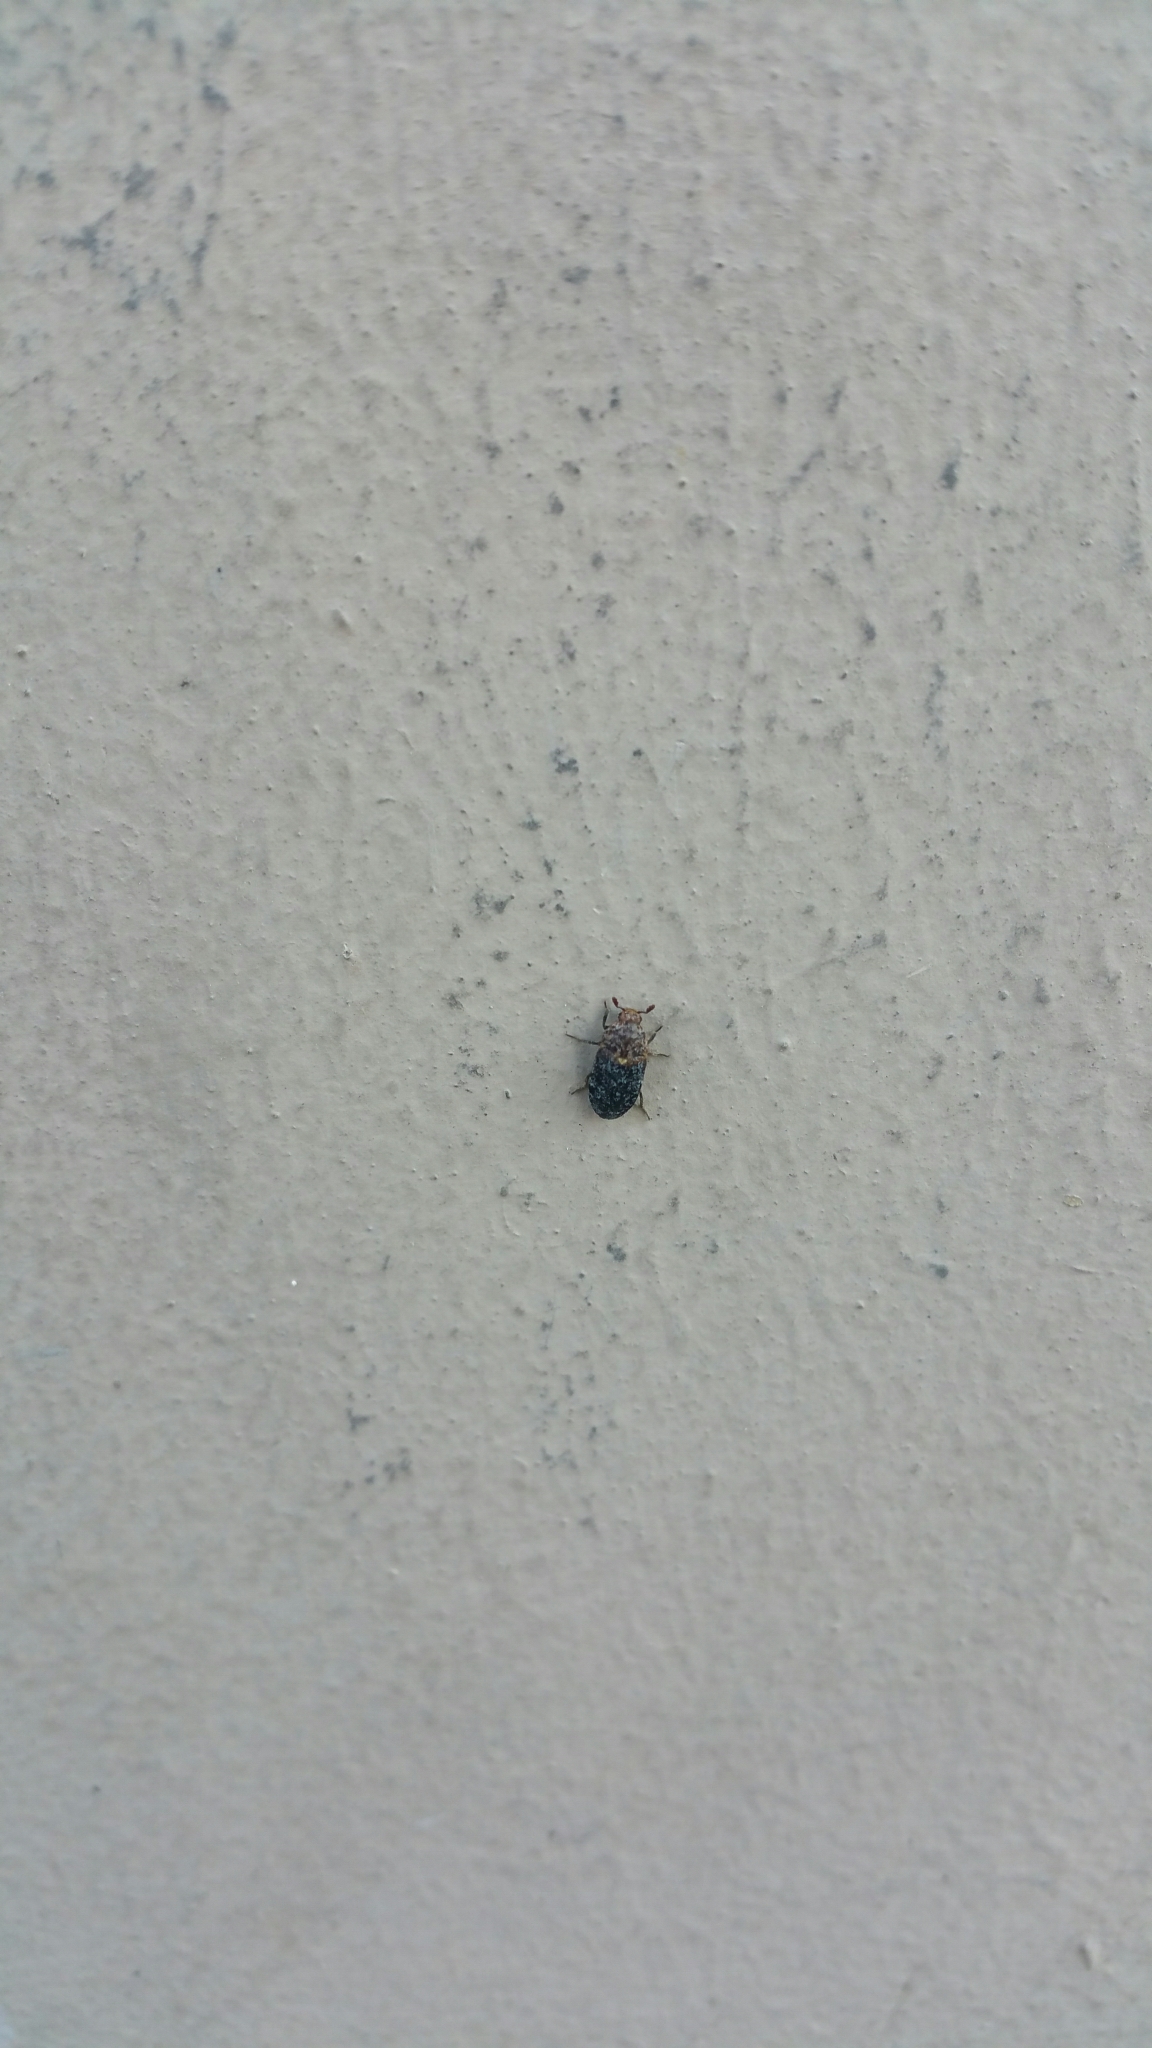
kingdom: Animalia
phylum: Arthropoda
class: Insecta
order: Coleoptera
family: Dermestidae
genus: Dermestes
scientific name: Dermestes undulatus
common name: Wavy carpet beetle
